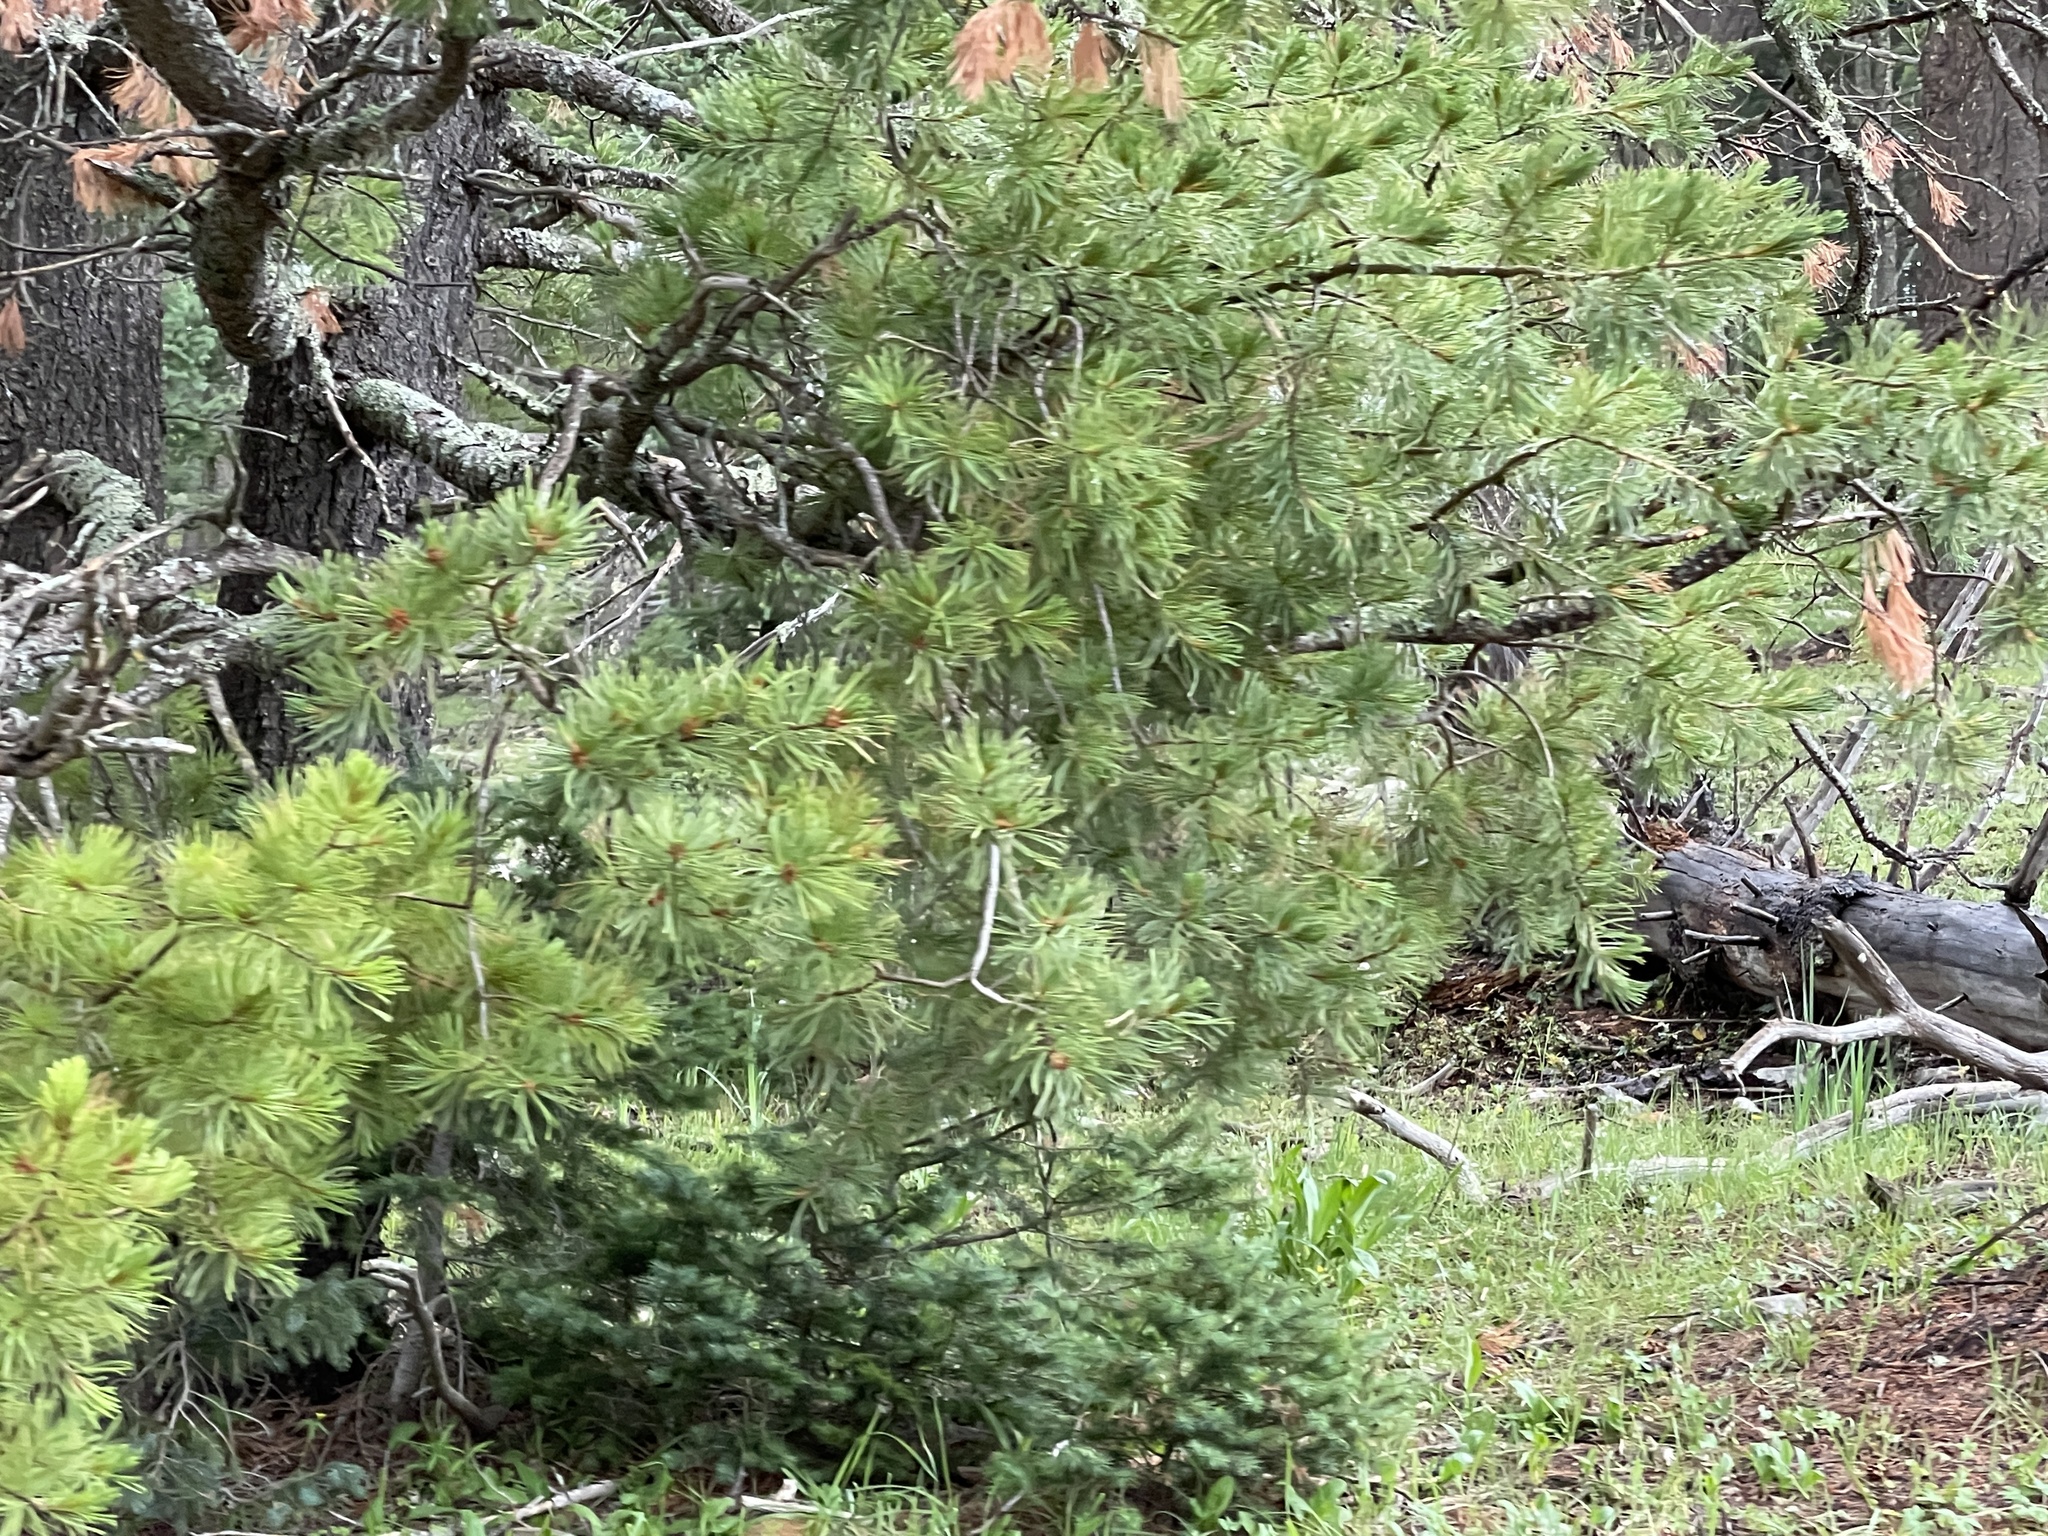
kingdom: Plantae
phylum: Tracheophyta
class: Pinopsida
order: Pinales
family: Pinaceae
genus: Pinus
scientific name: Pinus strobiformis
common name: Southwestern white pine
